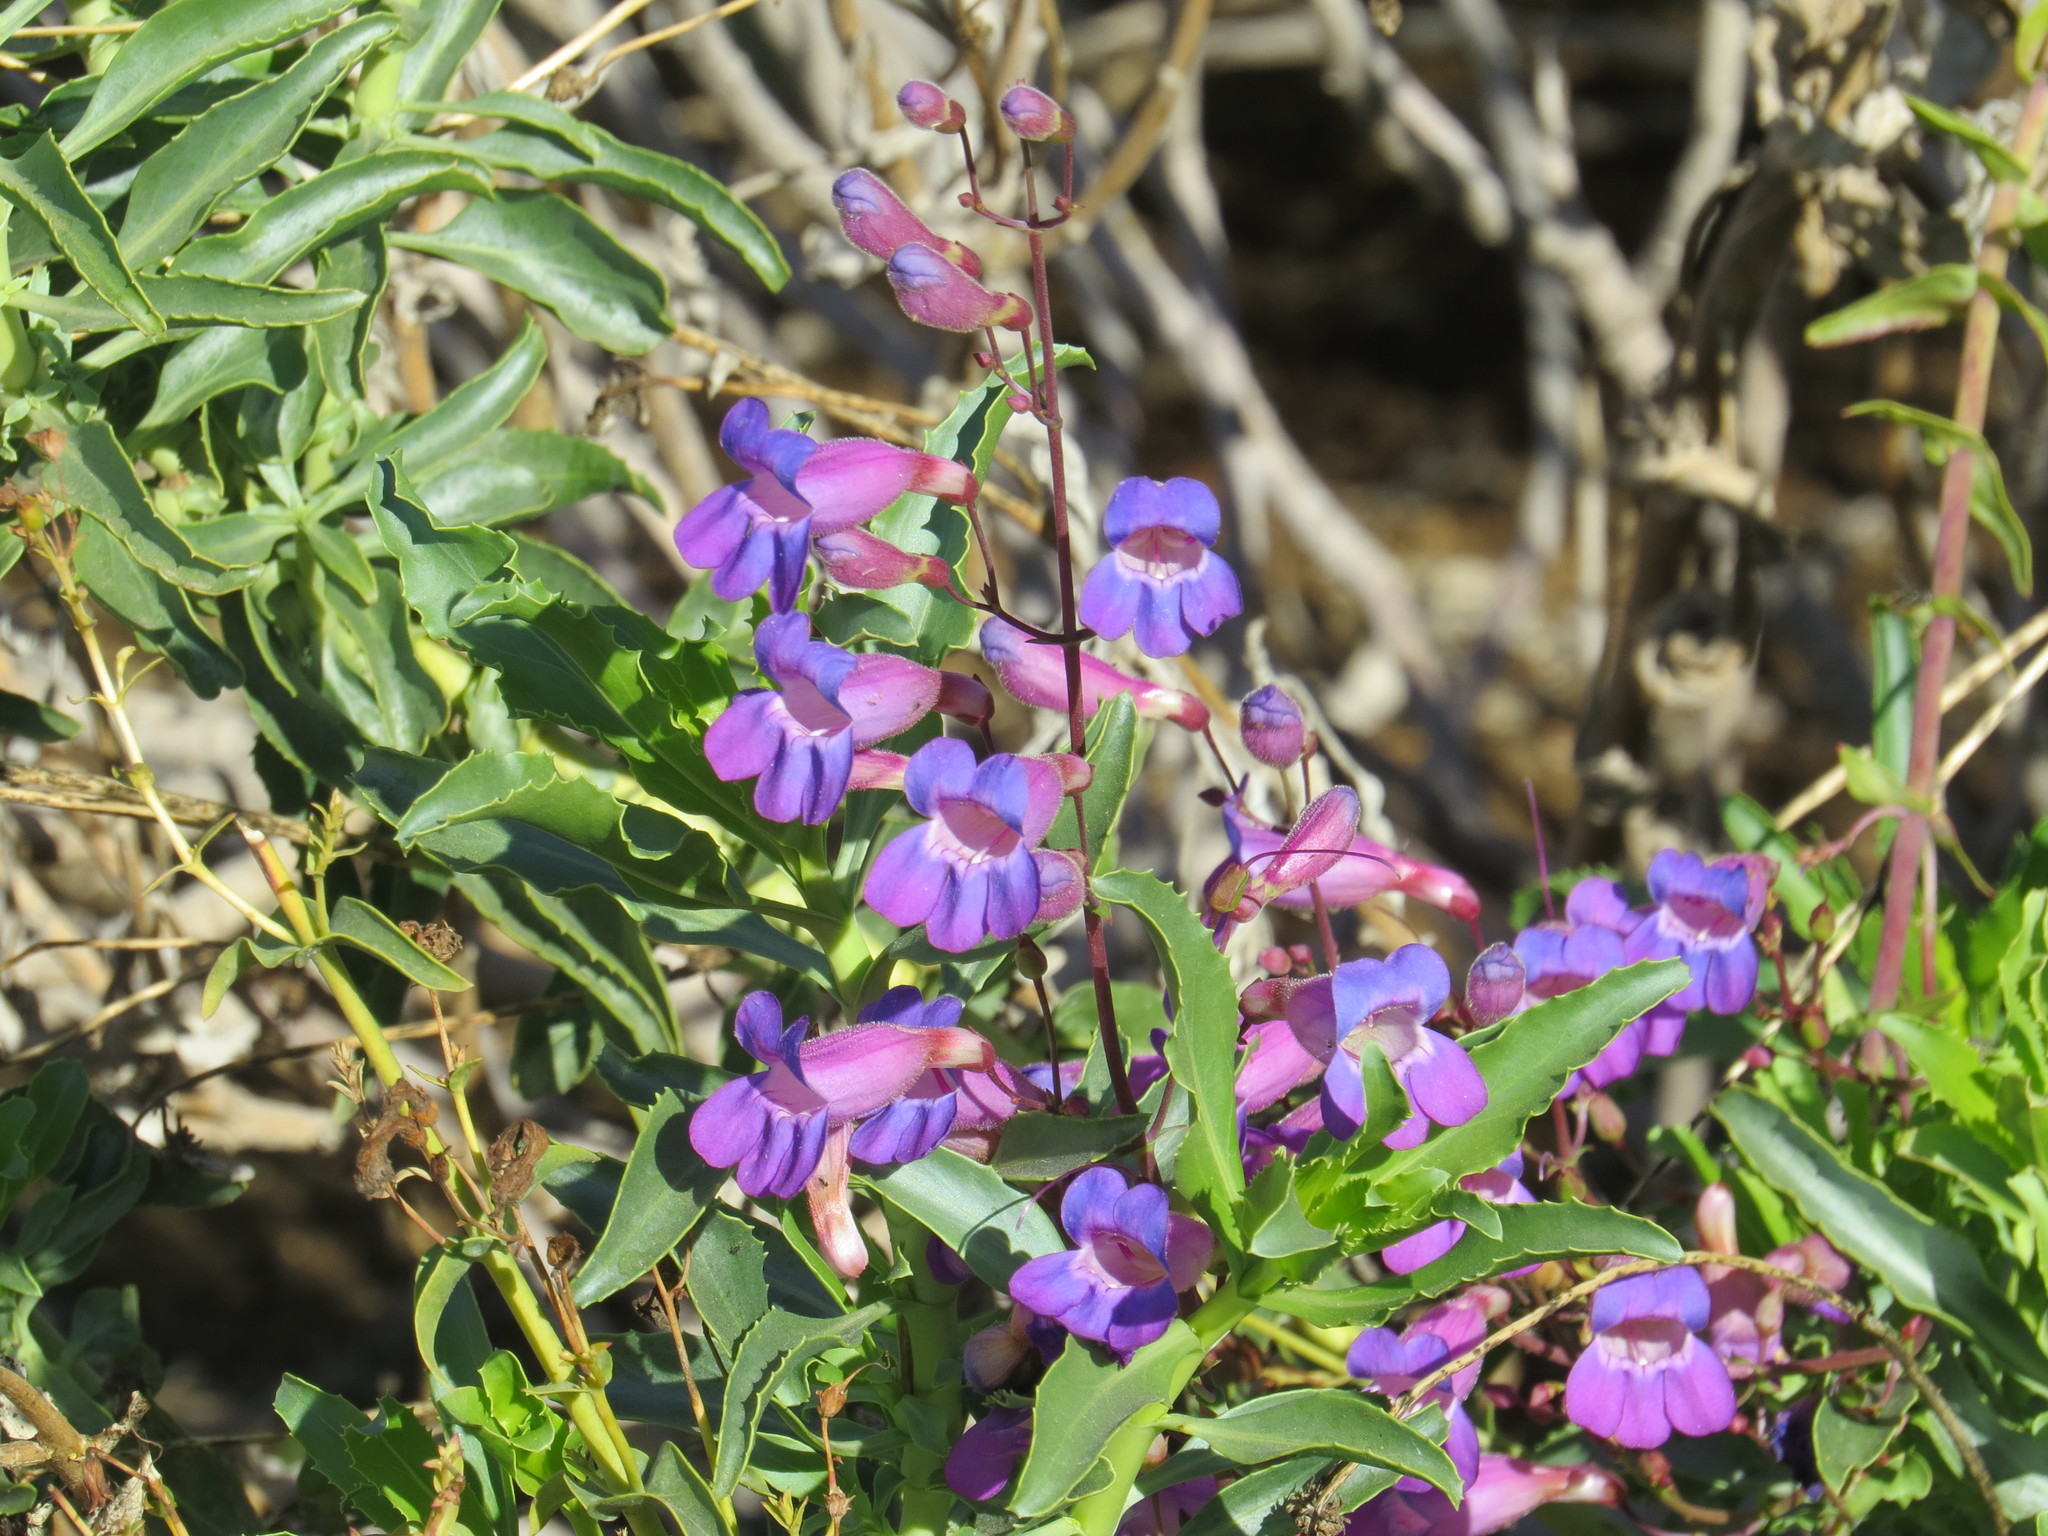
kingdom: Plantae
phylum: Tracheophyta
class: Magnoliopsida
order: Lamiales
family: Plantaginaceae
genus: Penstemon
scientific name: Penstemon spectabilis
